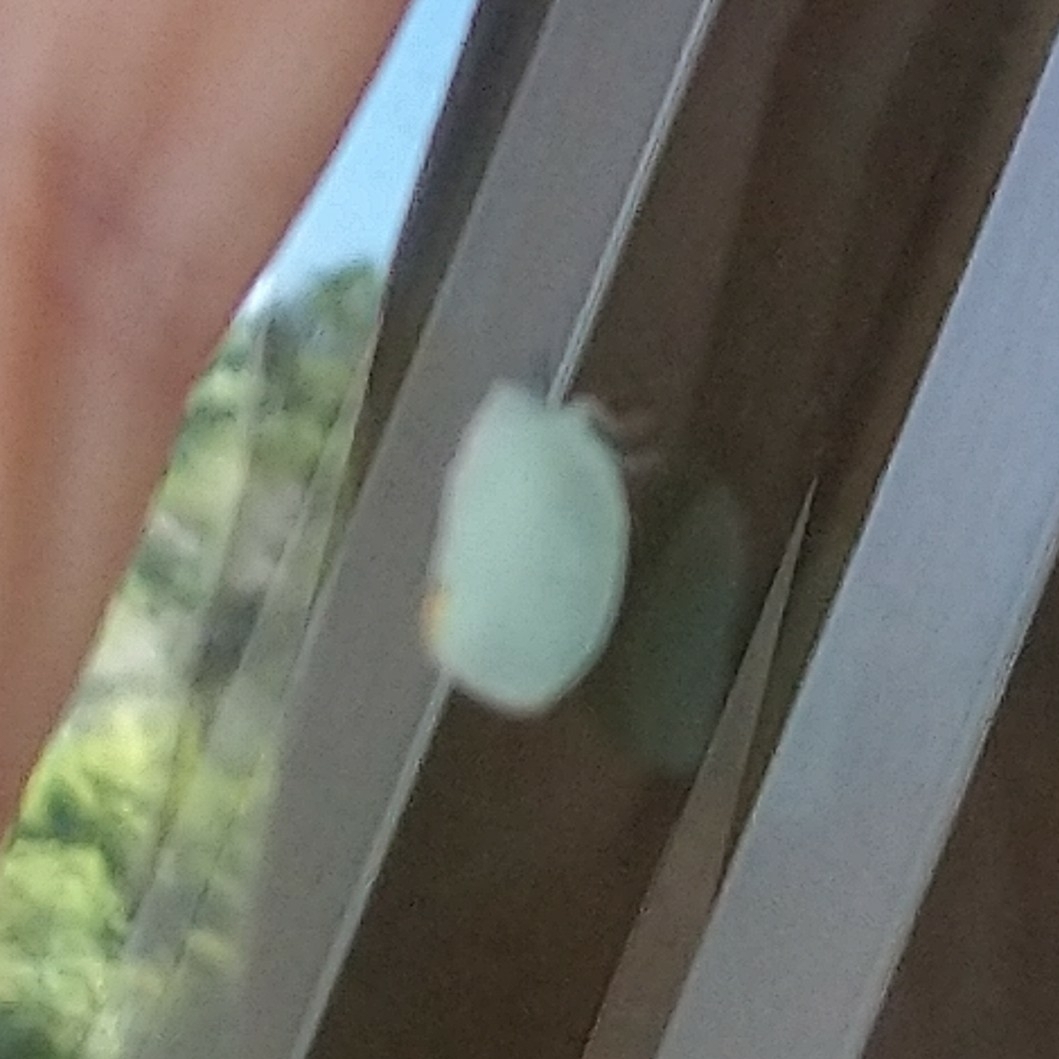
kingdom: Animalia
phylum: Arthropoda
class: Insecta
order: Hemiptera
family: Flatidae
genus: Dalapax
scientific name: Dalapax postica
